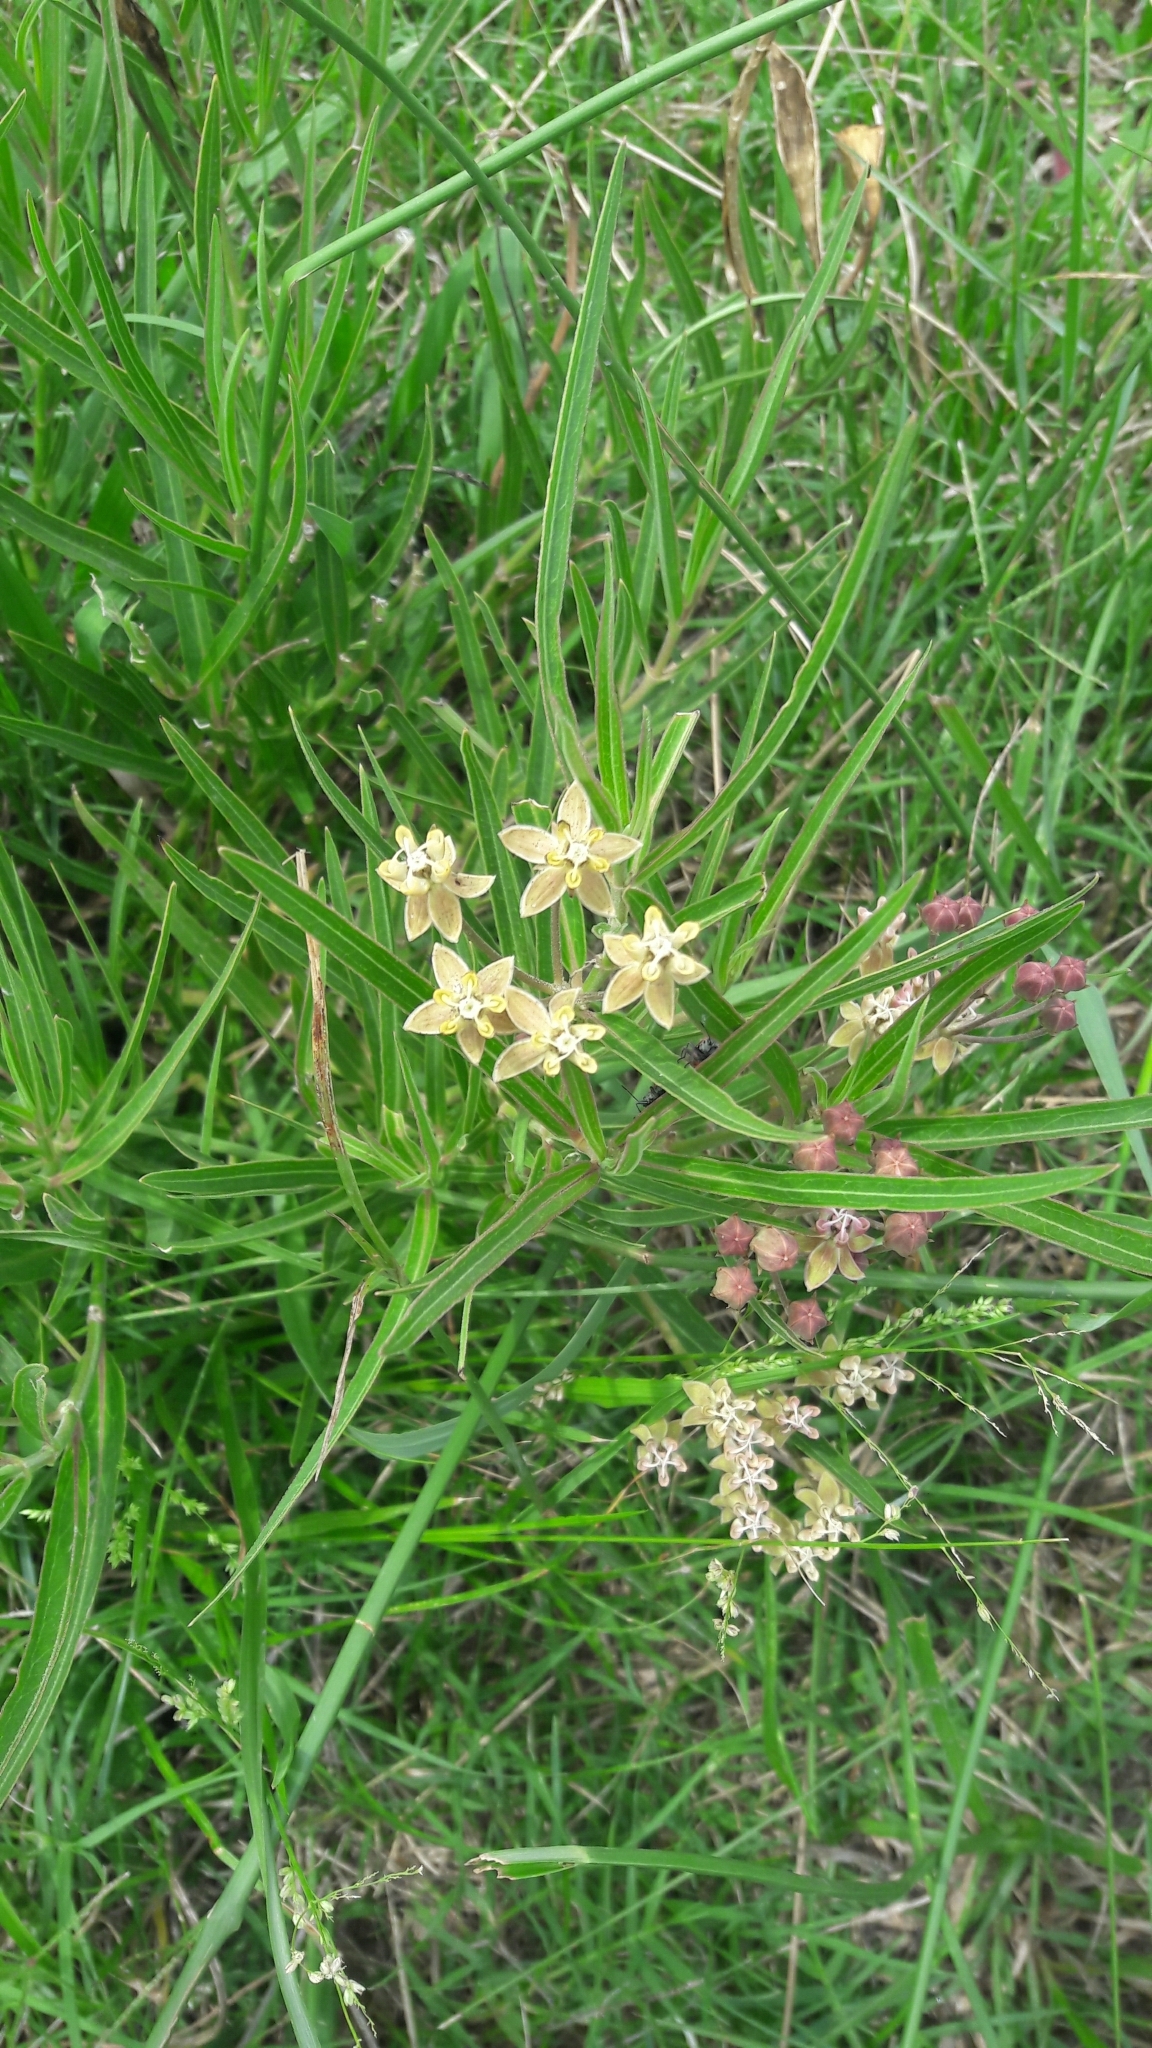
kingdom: Plantae
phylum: Tracheophyta
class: Magnoliopsida
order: Gentianales
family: Apocynaceae
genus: Asclepias
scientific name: Asclepias mellodora
